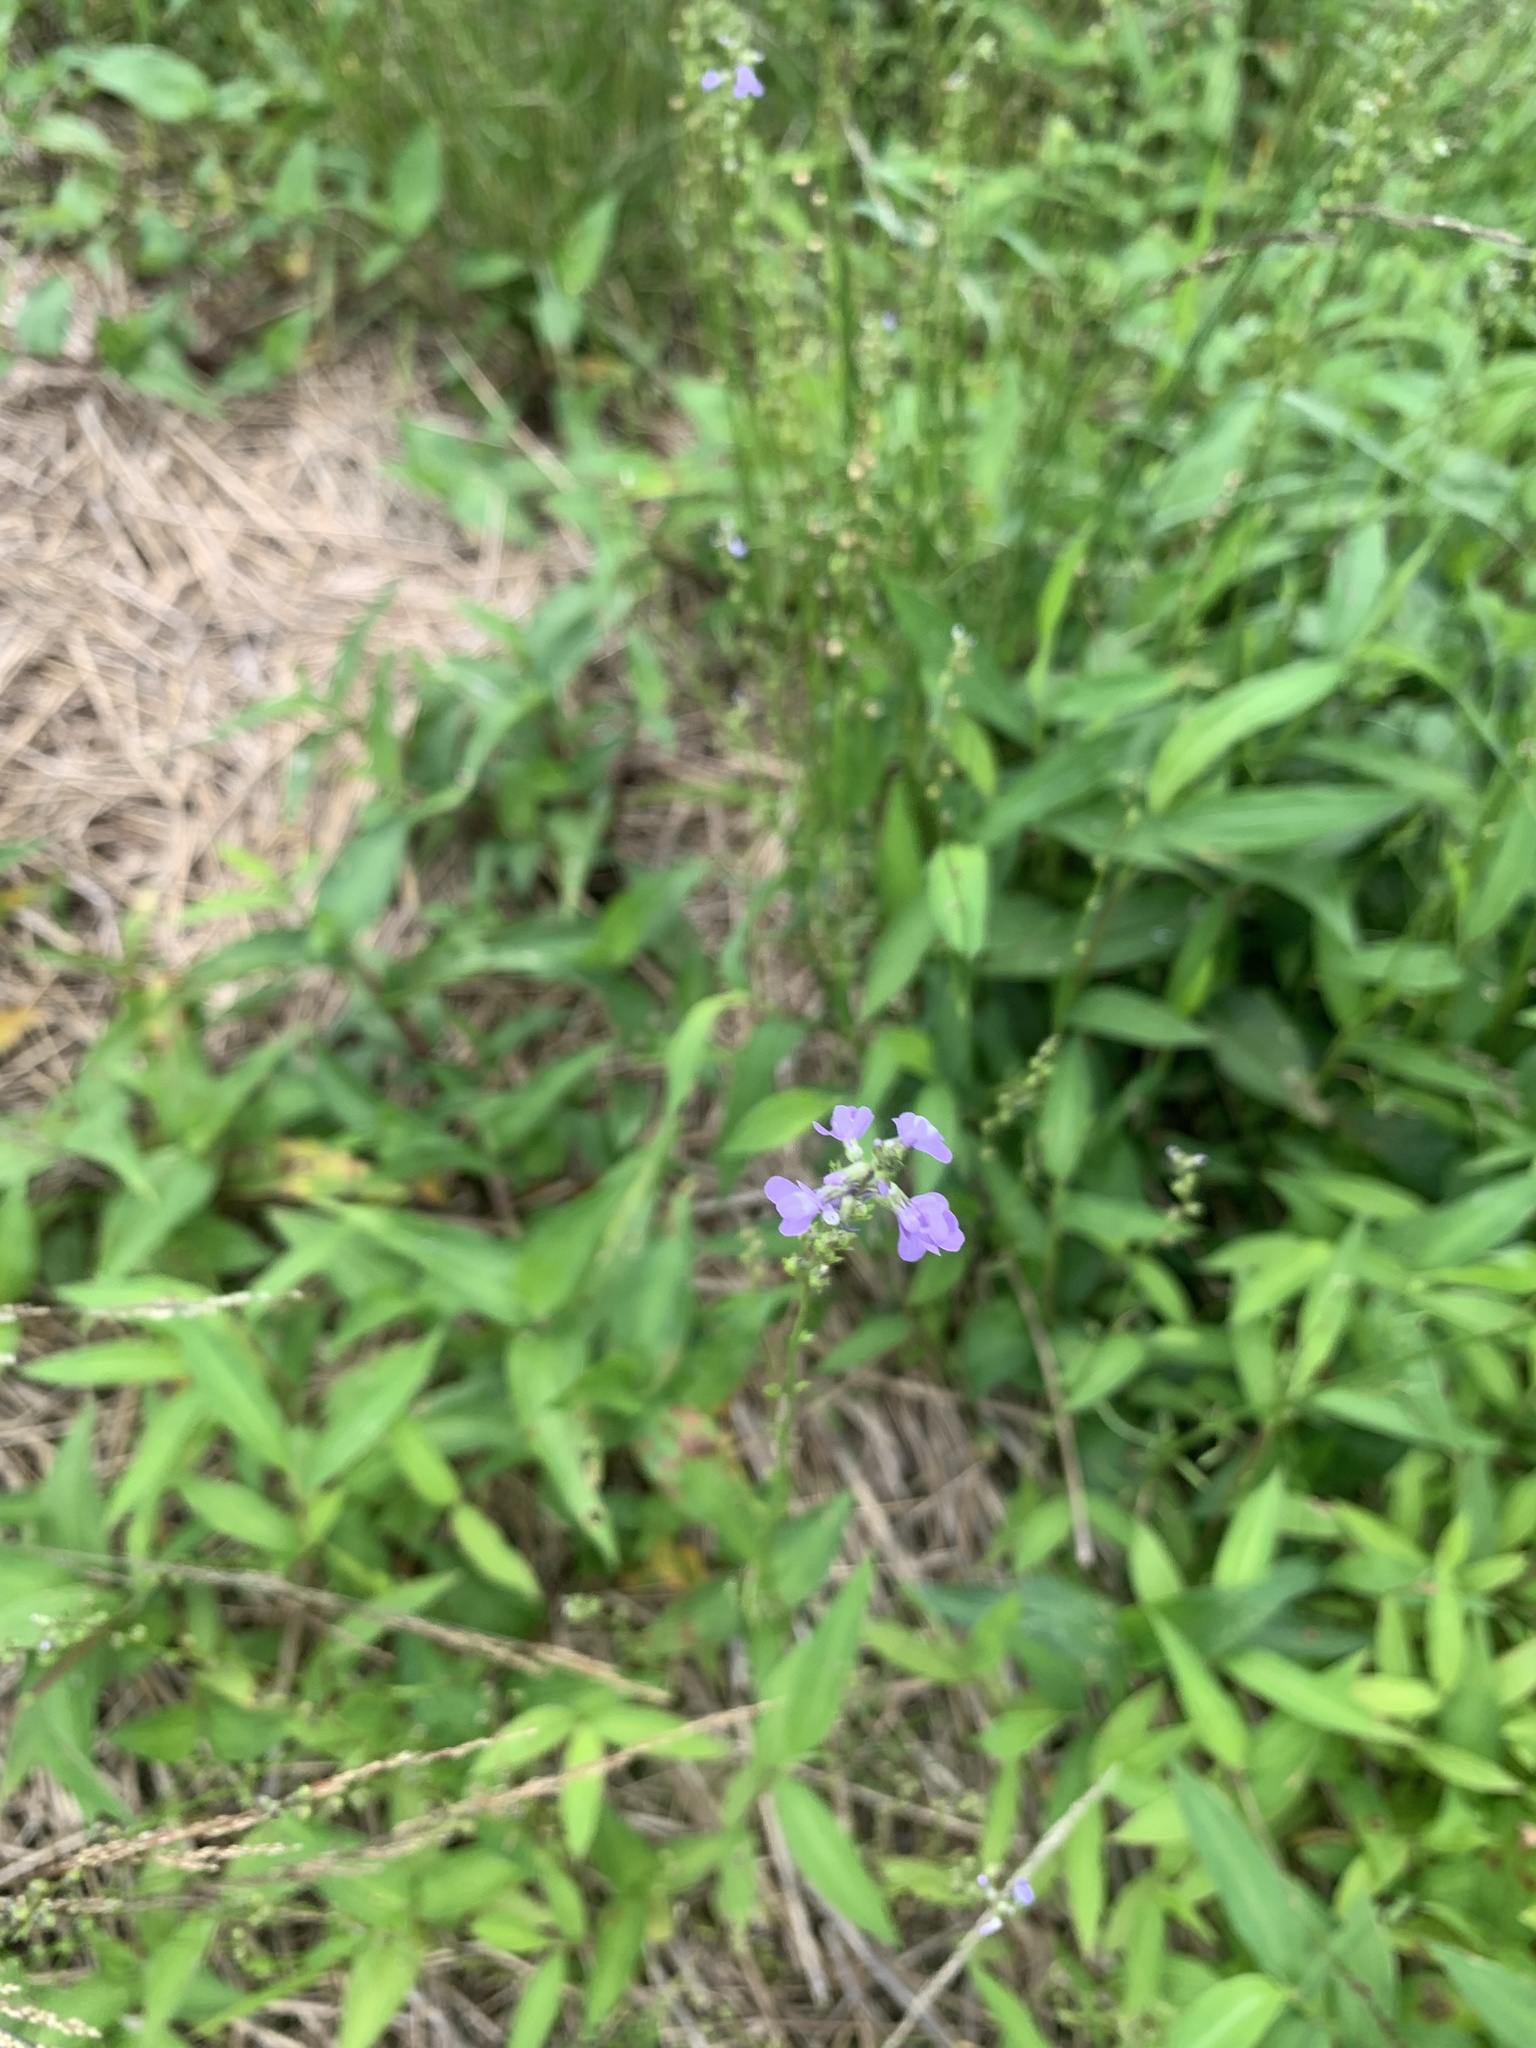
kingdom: Plantae
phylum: Tracheophyta
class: Magnoliopsida
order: Lamiales
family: Plantaginaceae
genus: Nuttallanthus
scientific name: Nuttallanthus canadensis
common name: Blue toadflax
